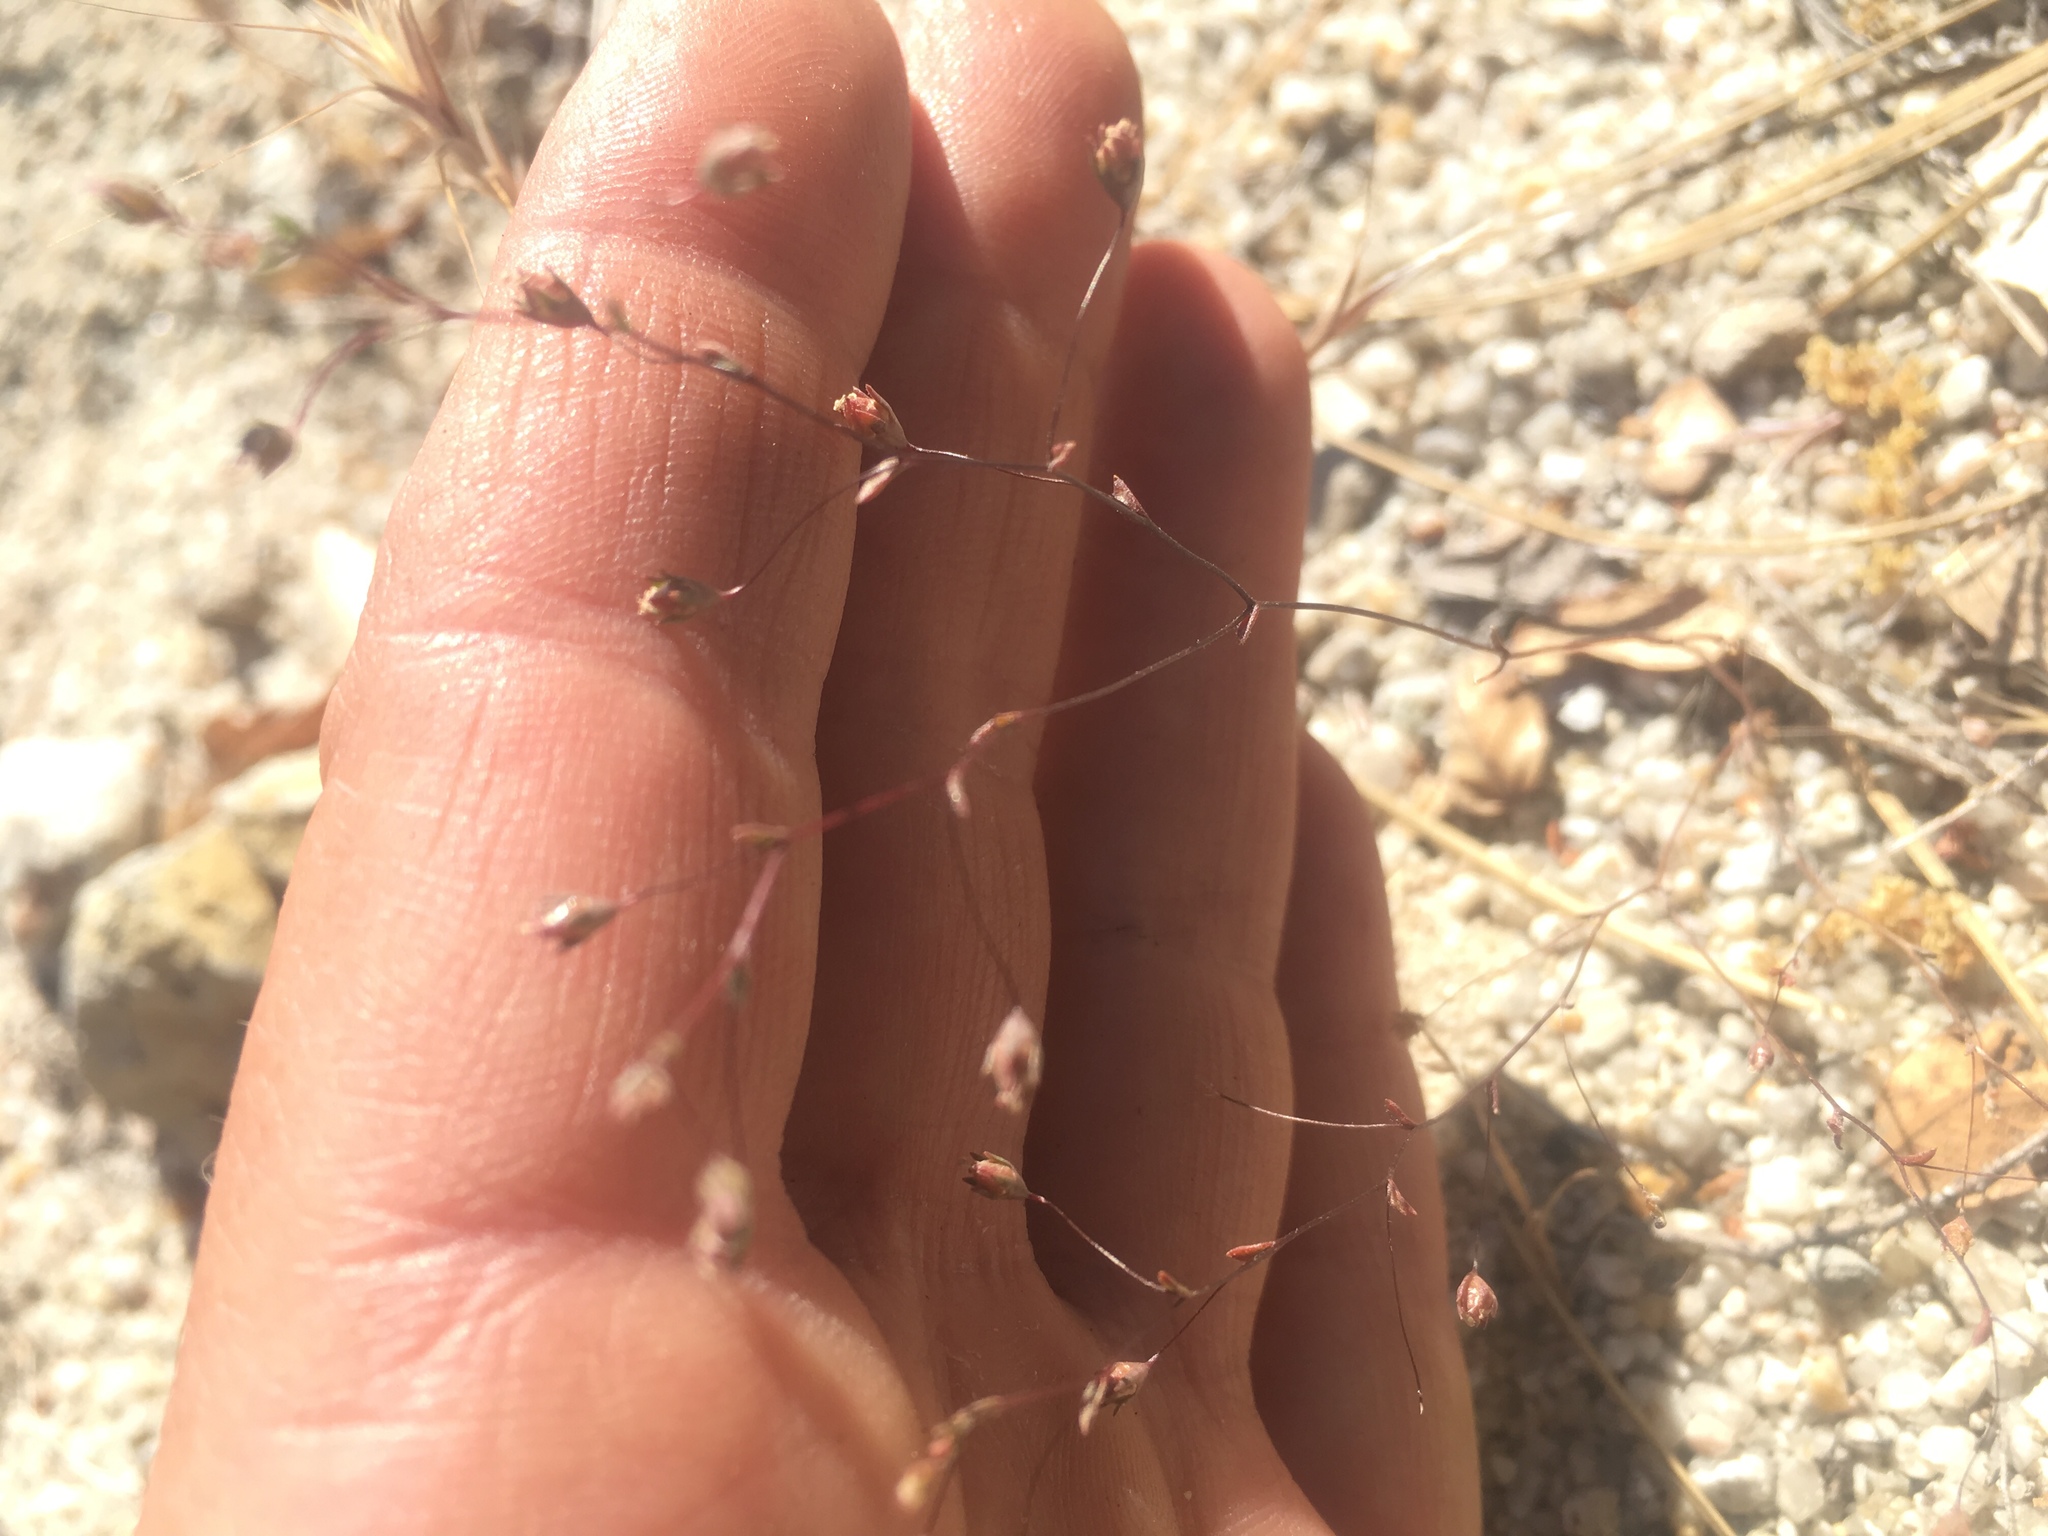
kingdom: Plantae
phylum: Tracheophyta
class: Magnoliopsida
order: Asterales
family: Campanulaceae
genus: Nemacladus
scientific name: Nemacladus secundiflorus
